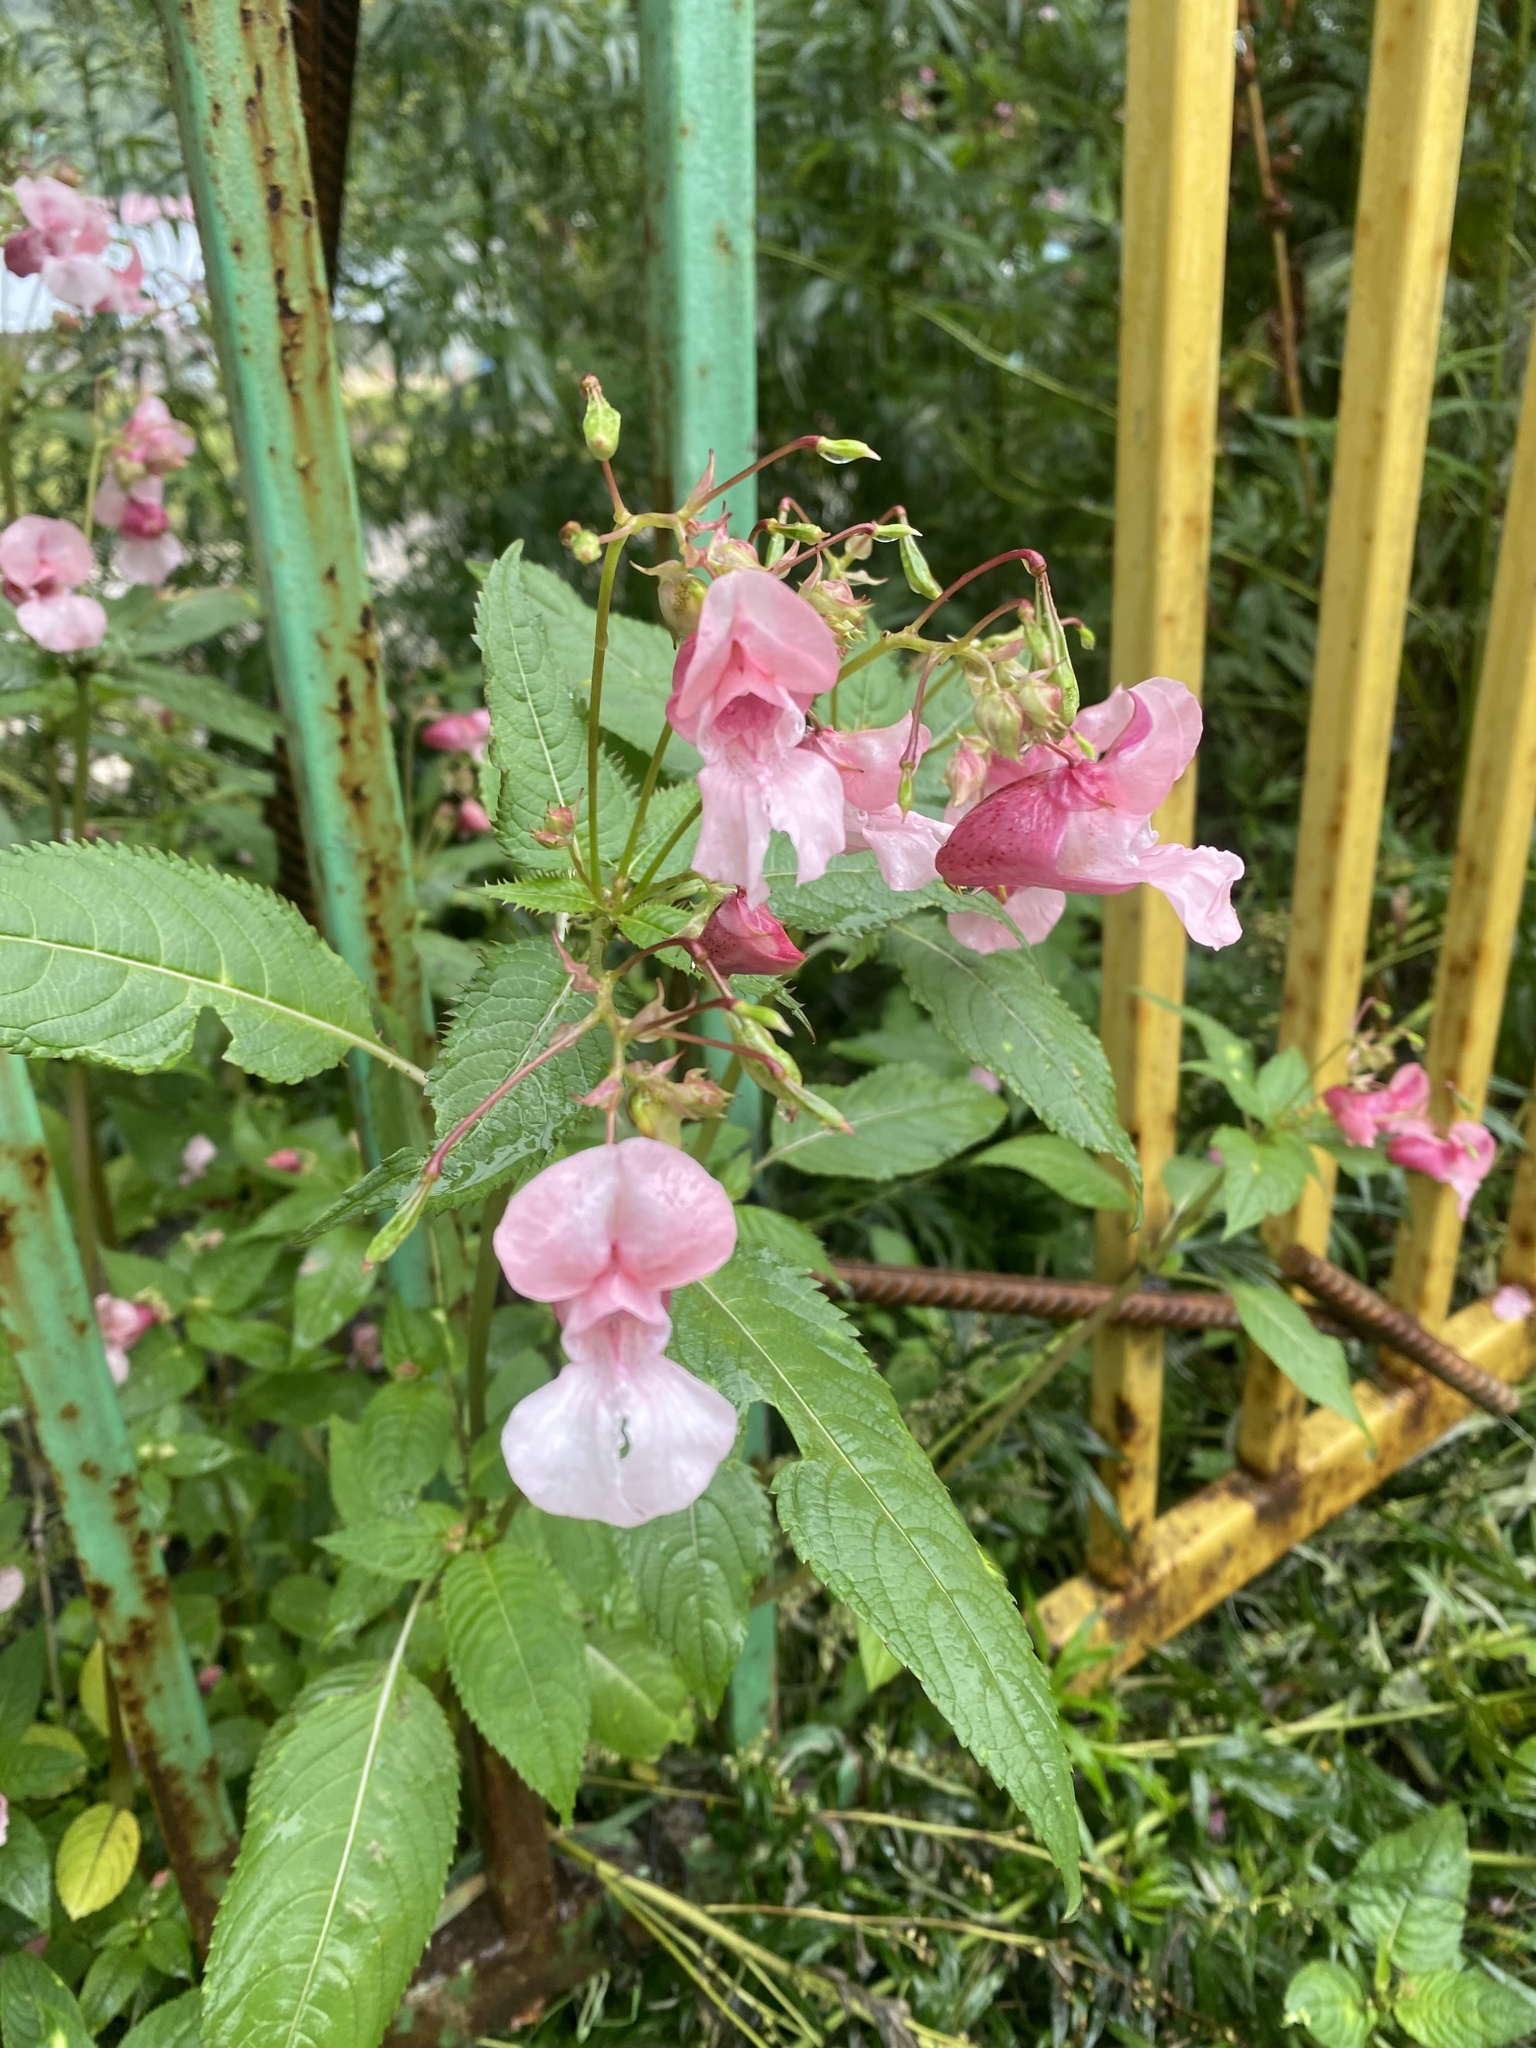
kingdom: Plantae
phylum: Tracheophyta
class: Magnoliopsida
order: Ericales
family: Balsaminaceae
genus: Impatiens
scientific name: Impatiens glandulifera
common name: Himalayan balsam
